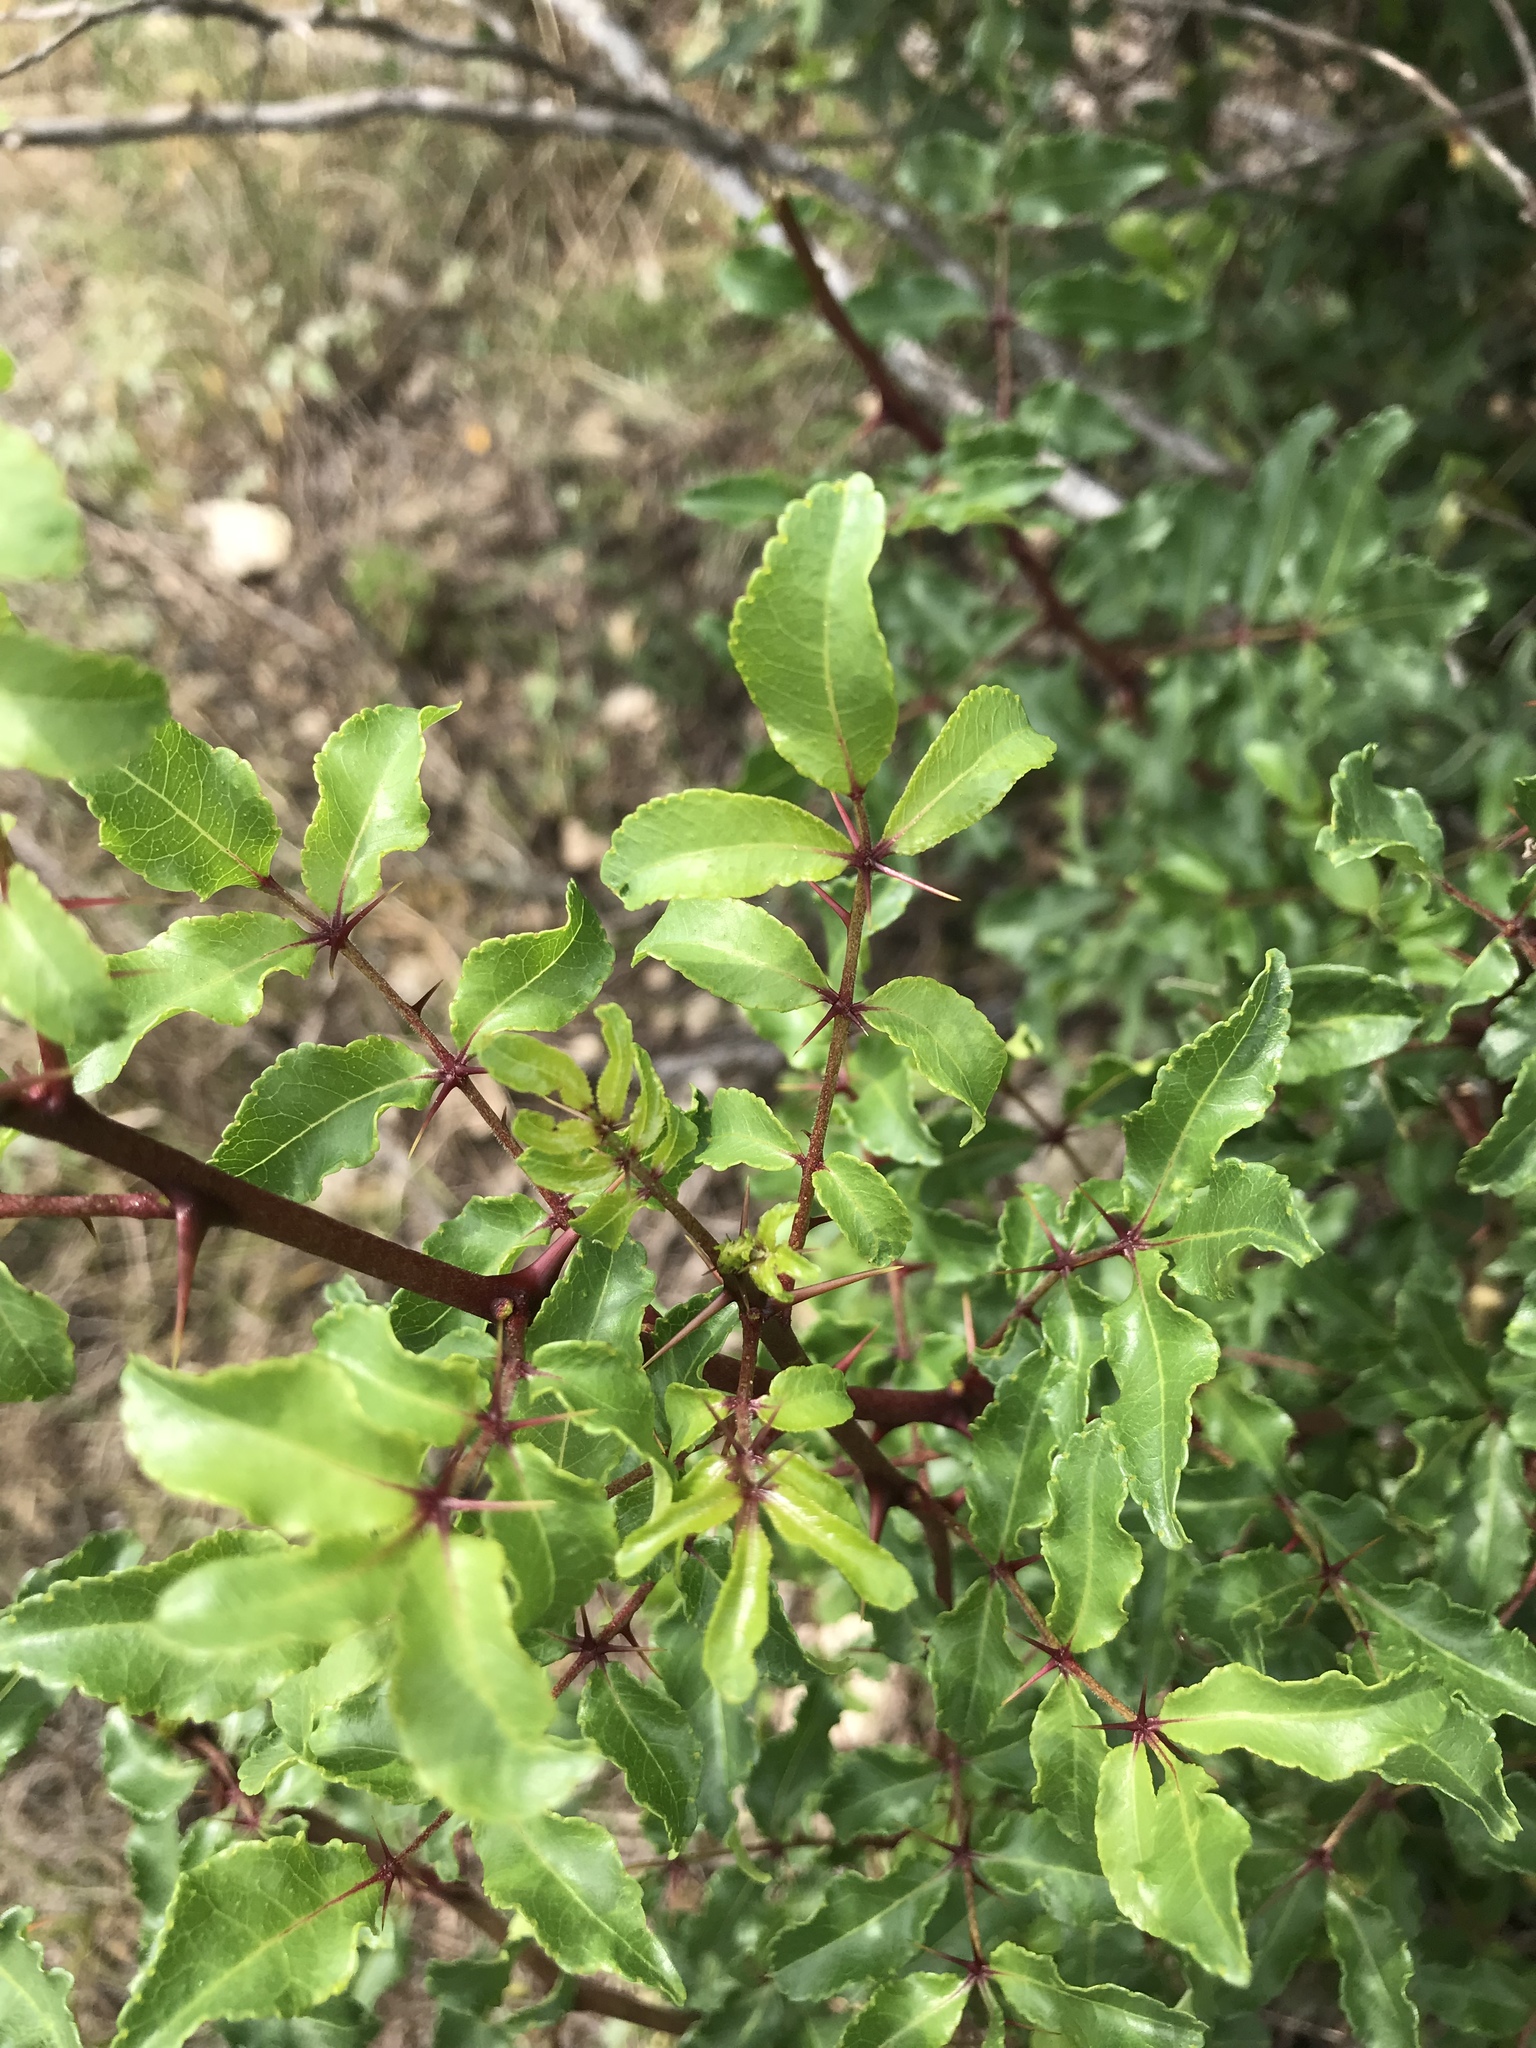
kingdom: Plantae
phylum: Tracheophyta
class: Magnoliopsida
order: Sapindales
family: Rutaceae
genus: Zanthoxylum
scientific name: Zanthoxylum clava-herculis
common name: Hercules'-club
